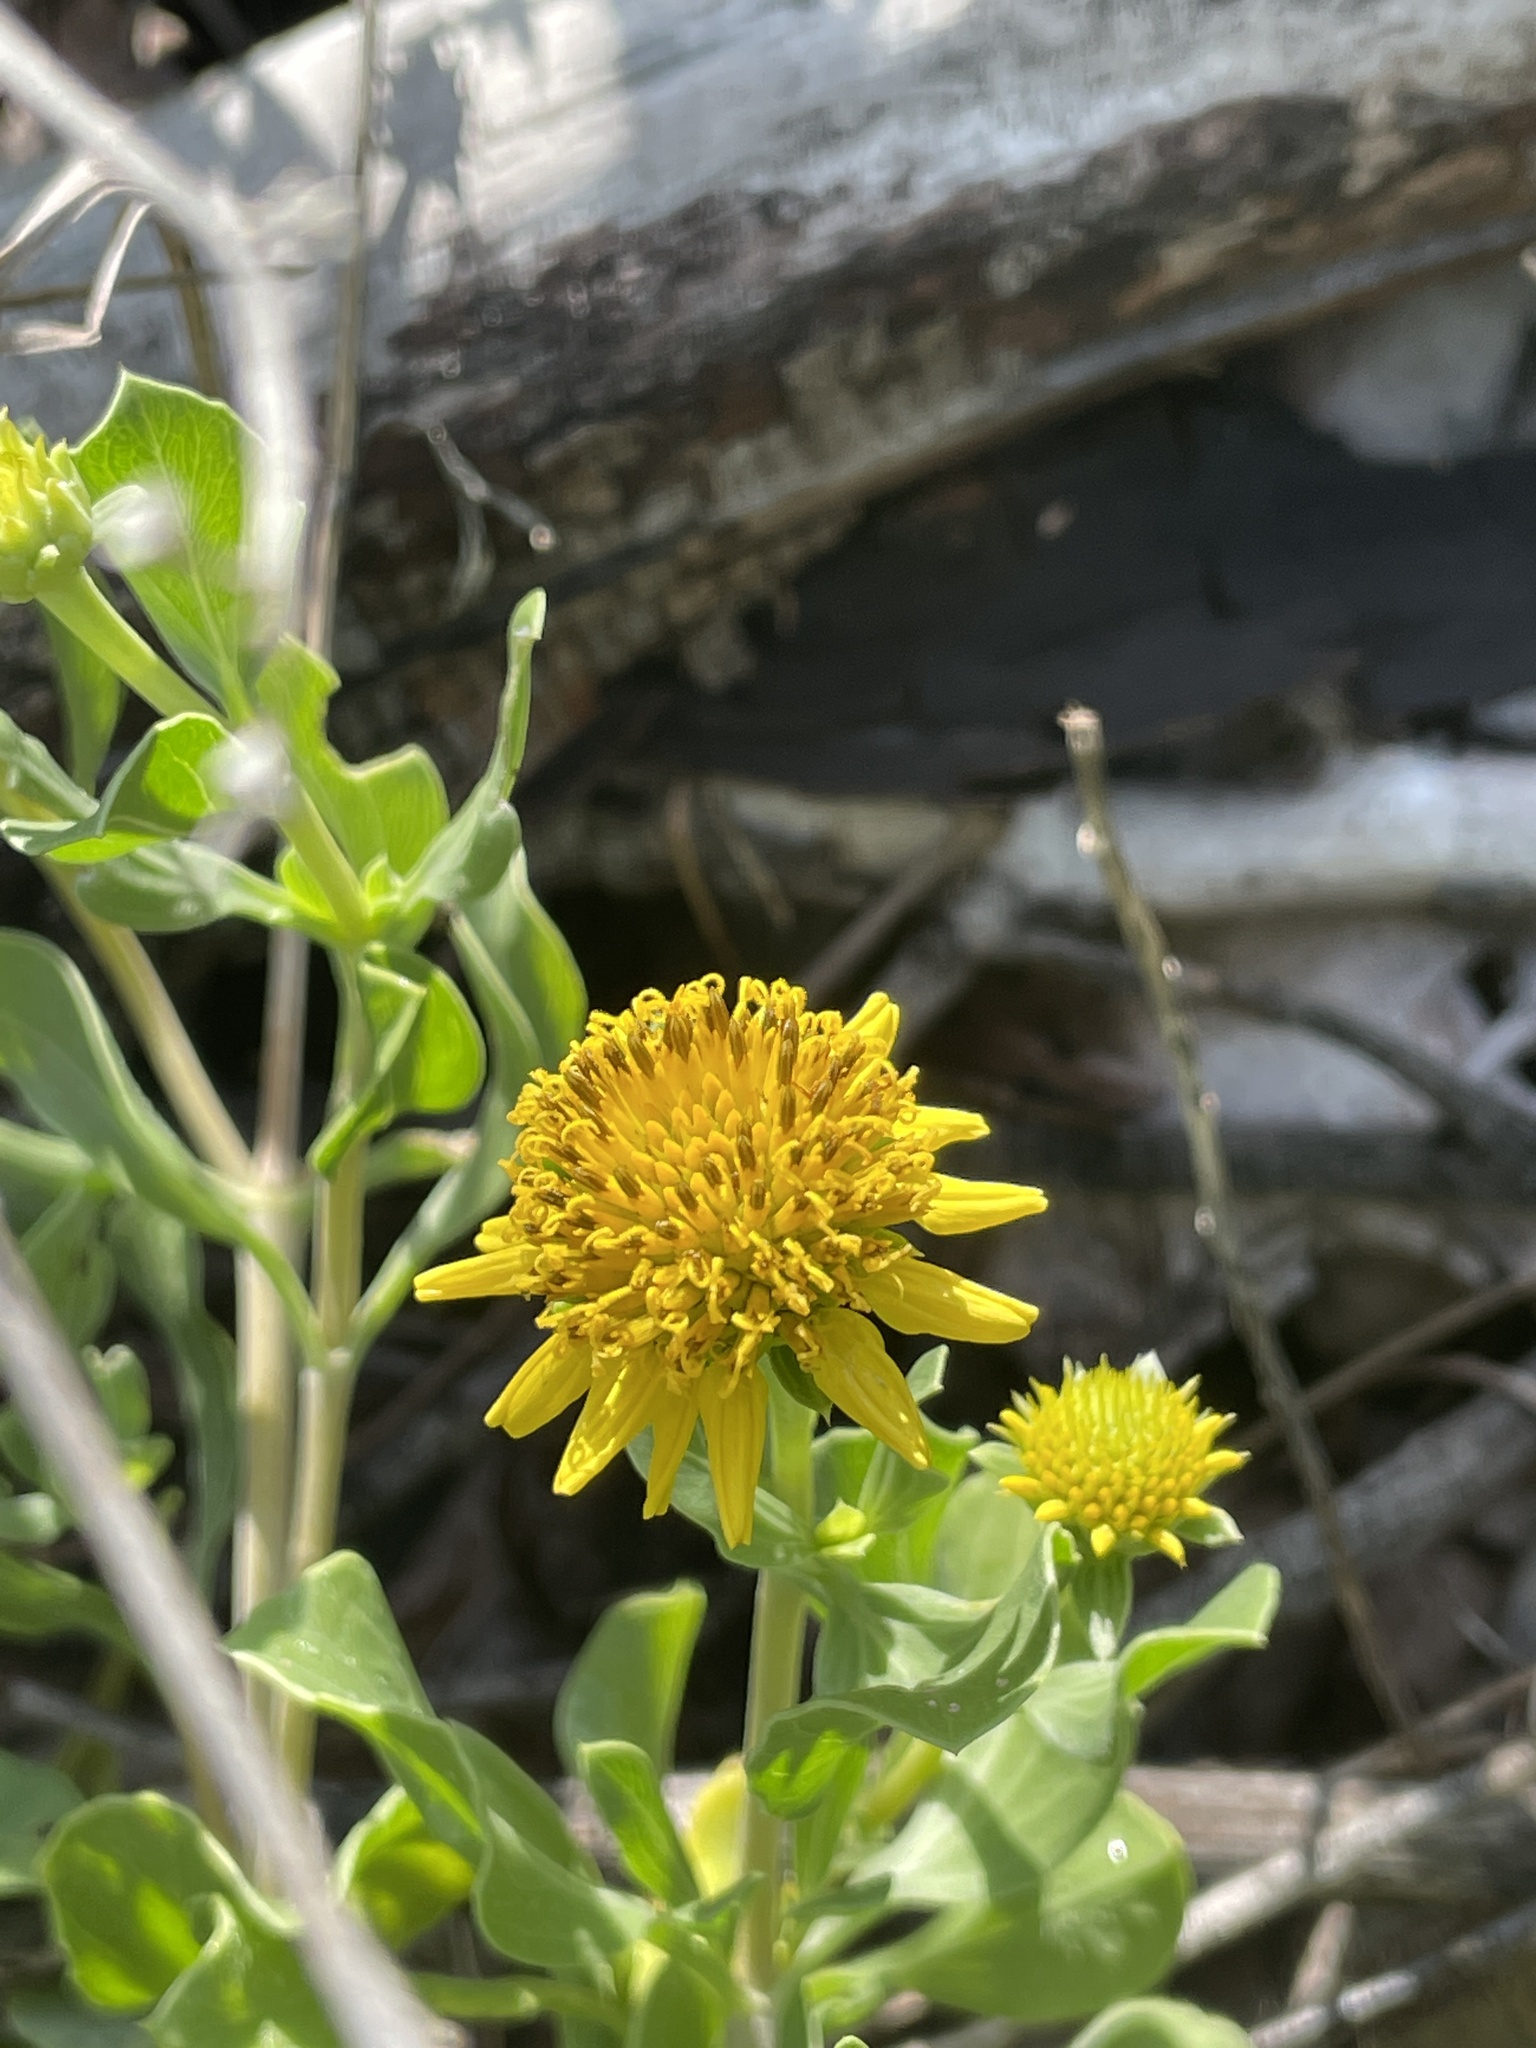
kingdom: Plantae
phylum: Tracheophyta
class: Magnoliopsida
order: Asterales
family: Asteraceae
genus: Borrichia
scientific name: Borrichia frutescens
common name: Sea oxeye
